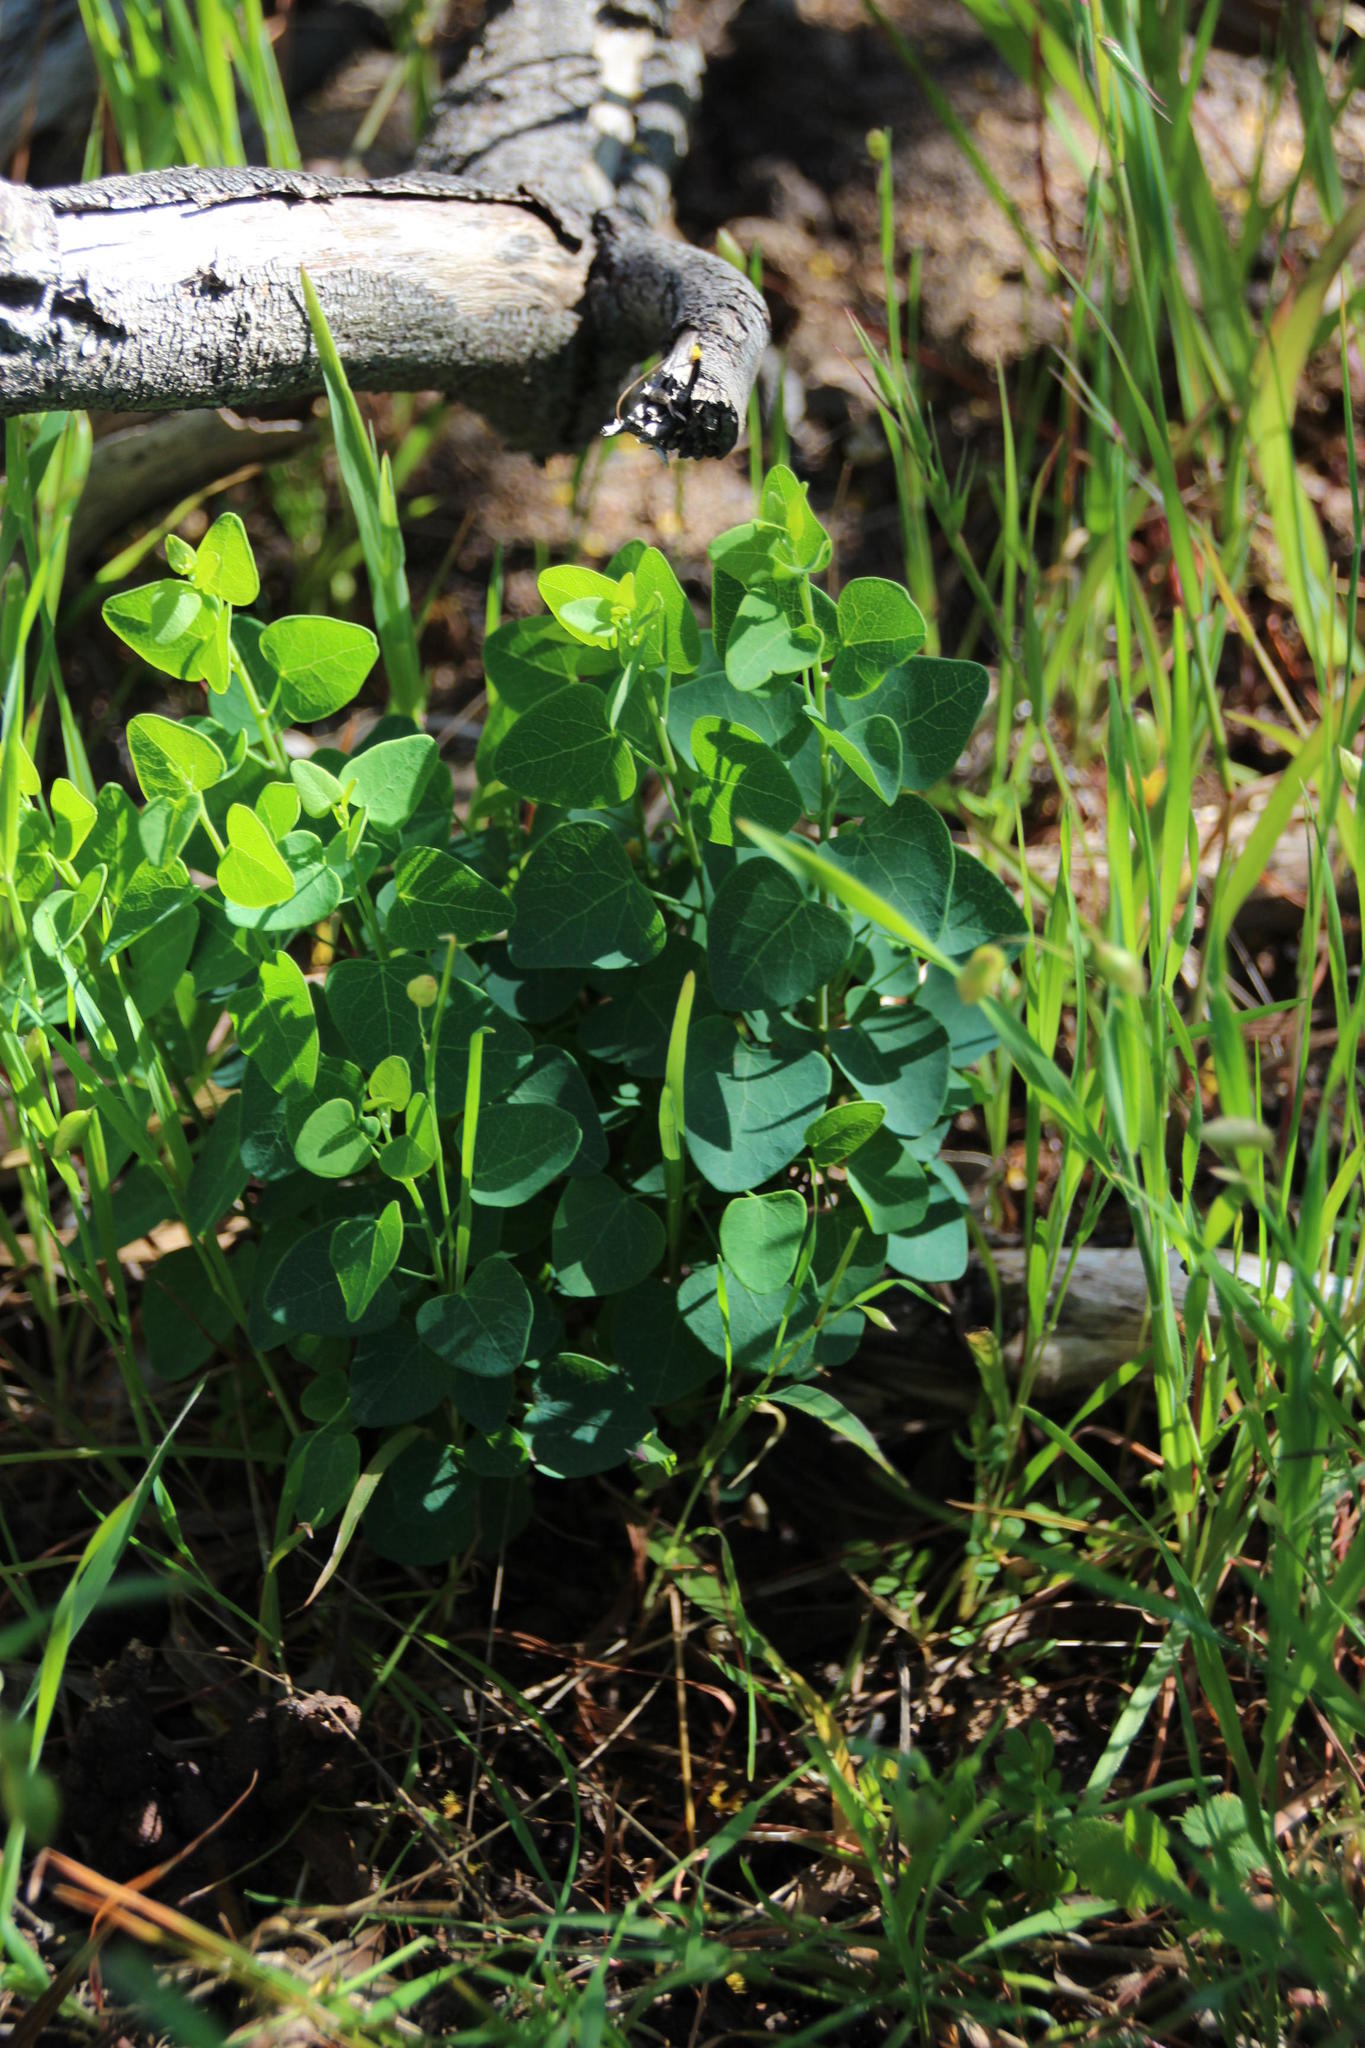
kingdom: Plantae
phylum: Tracheophyta
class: Magnoliopsida
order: Ranunculales
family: Menispermaceae
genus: Cissampelos
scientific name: Cissampelos capensis
